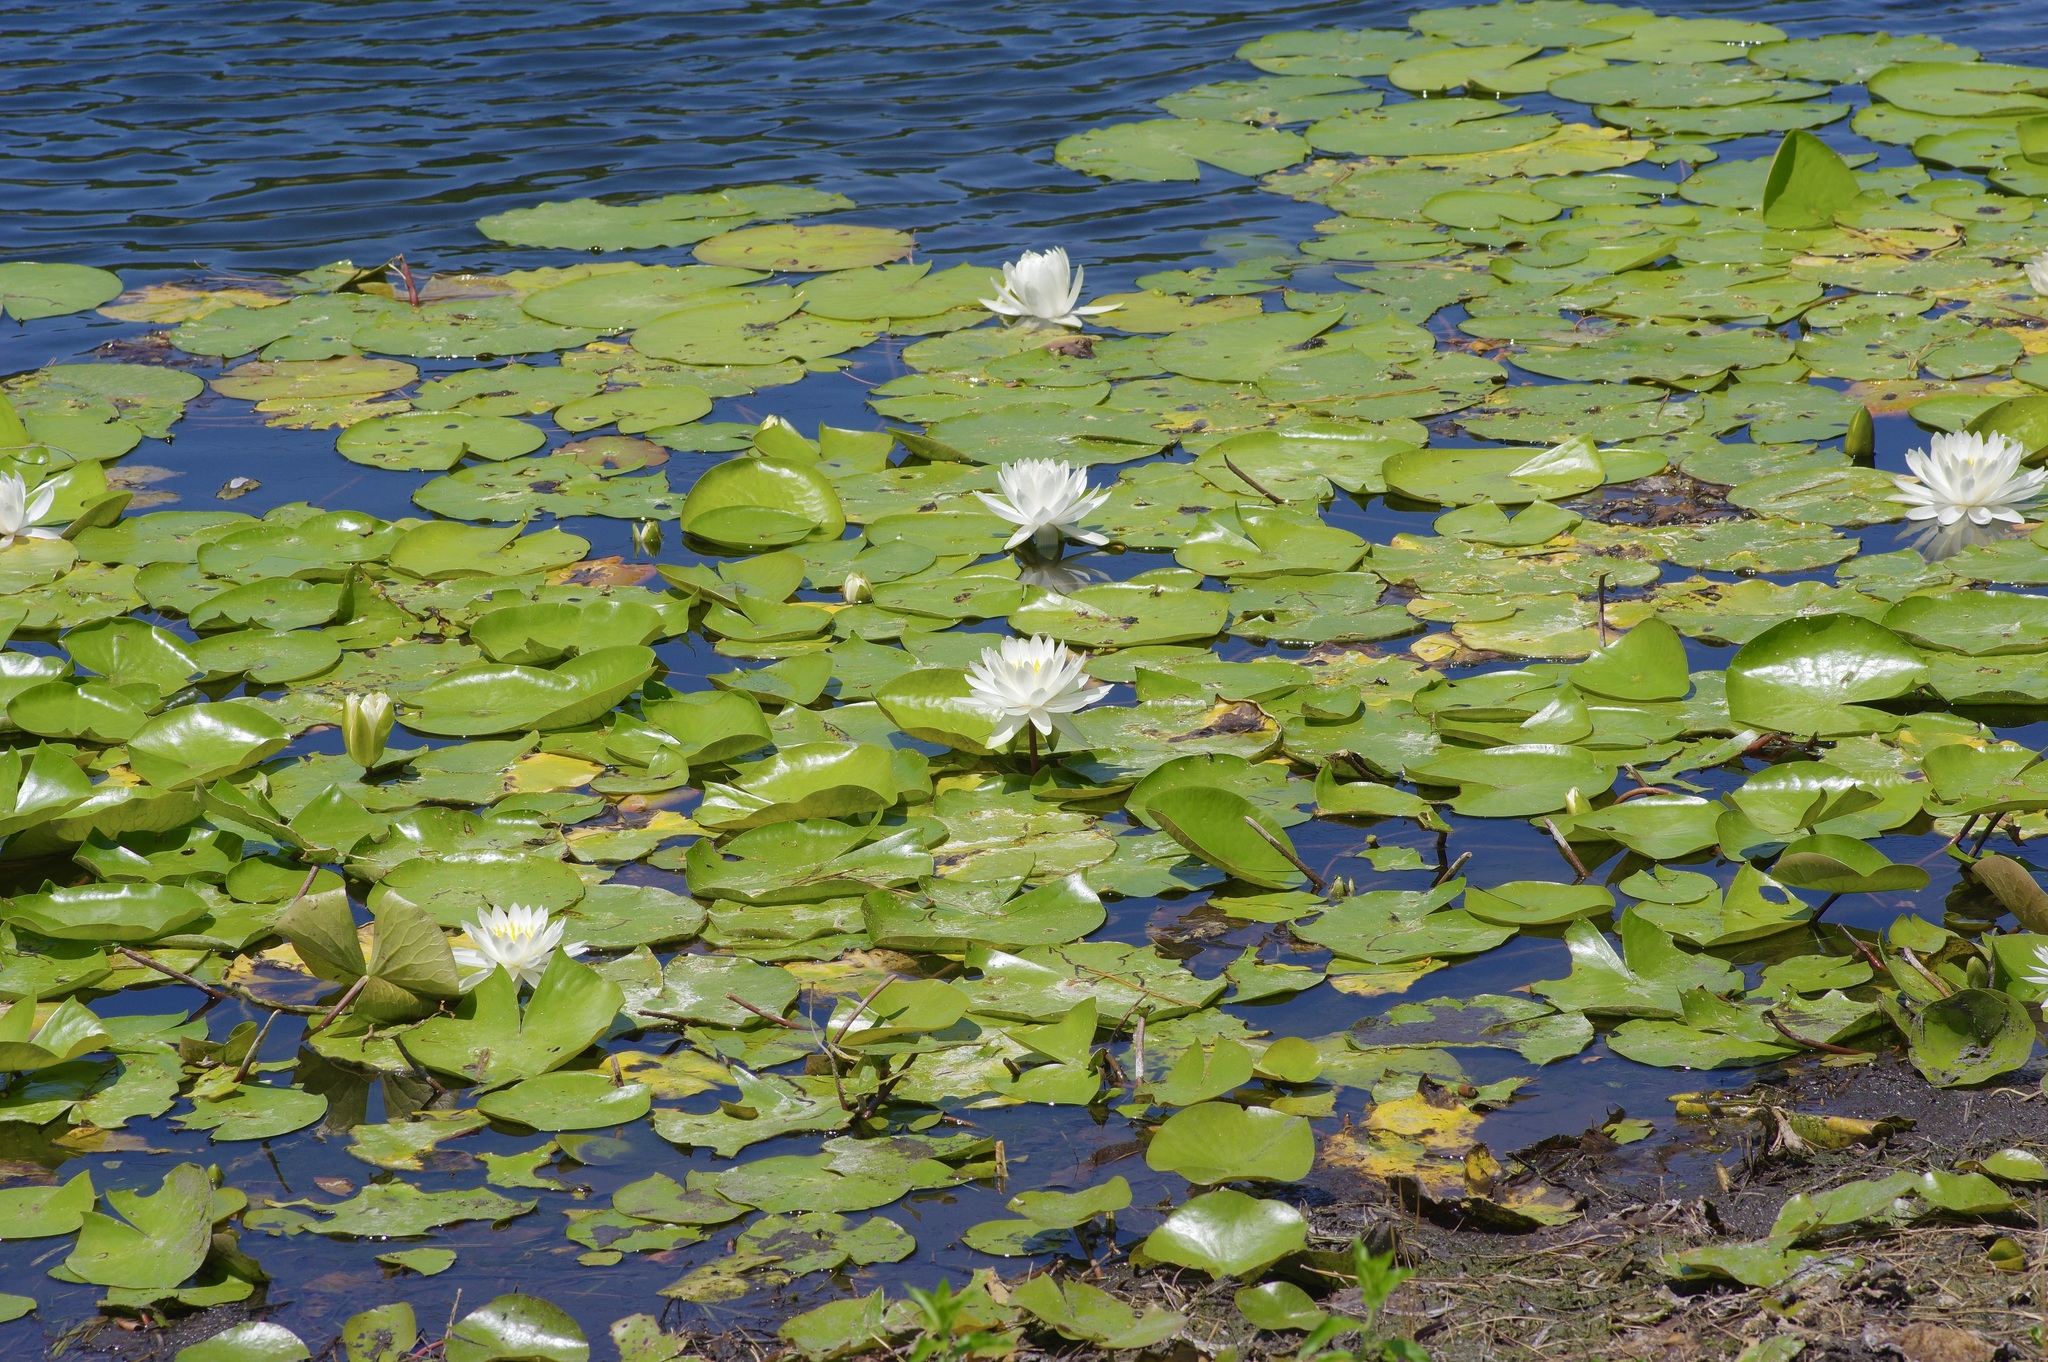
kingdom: Plantae
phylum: Tracheophyta
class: Magnoliopsida
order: Nymphaeales
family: Nymphaeaceae
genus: Nymphaea
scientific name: Nymphaea odorata
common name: Fragrant water-lily
